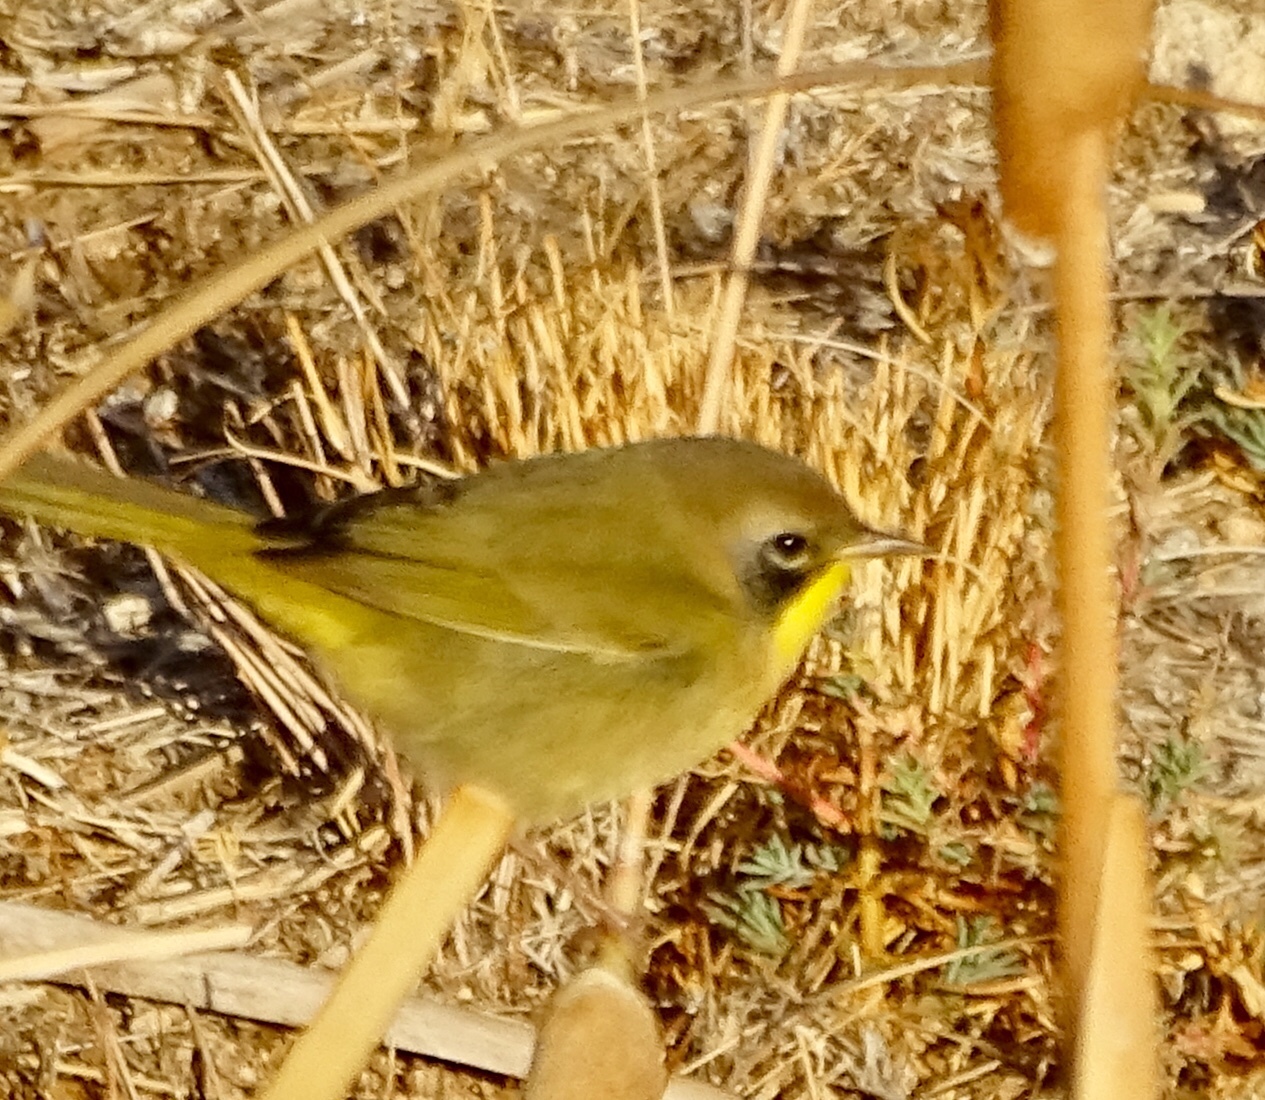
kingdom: Animalia
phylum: Chordata
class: Aves
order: Passeriformes
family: Parulidae
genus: Geothlypis
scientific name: Geothlypis trichas
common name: Common yellowthroat
